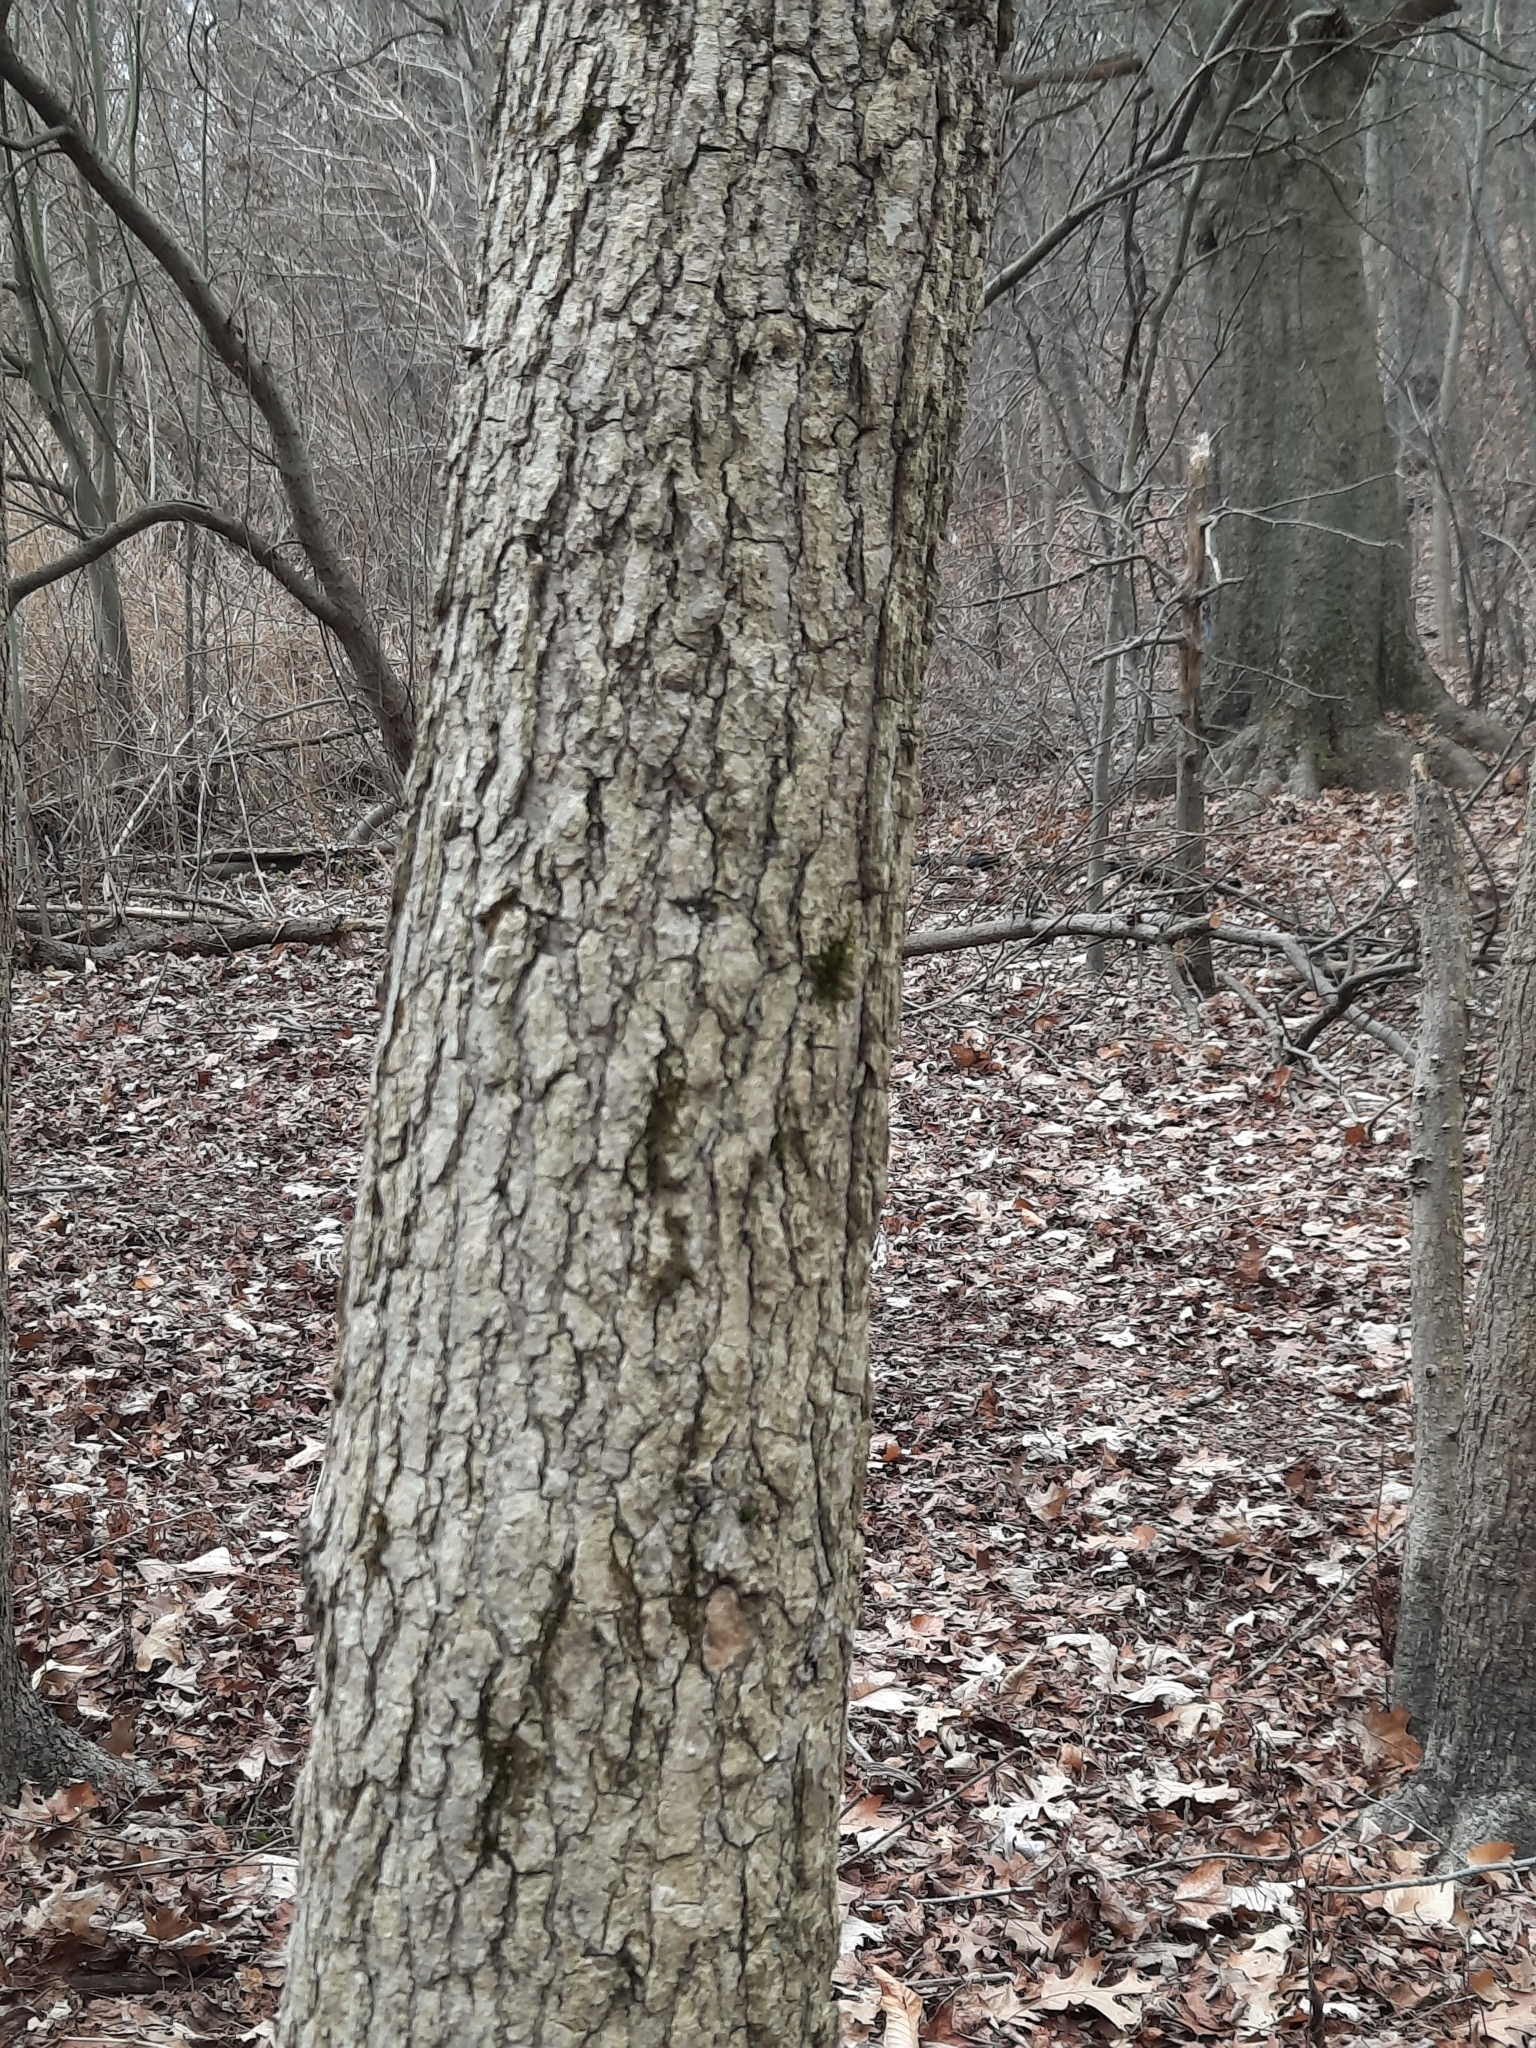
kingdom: Plantae
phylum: Tracheophyta
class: Magnoliopsida
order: Saxifragales
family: Altingiaceae
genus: Liquidambar
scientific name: Liquidambar styraciflua
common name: Sweet gum
